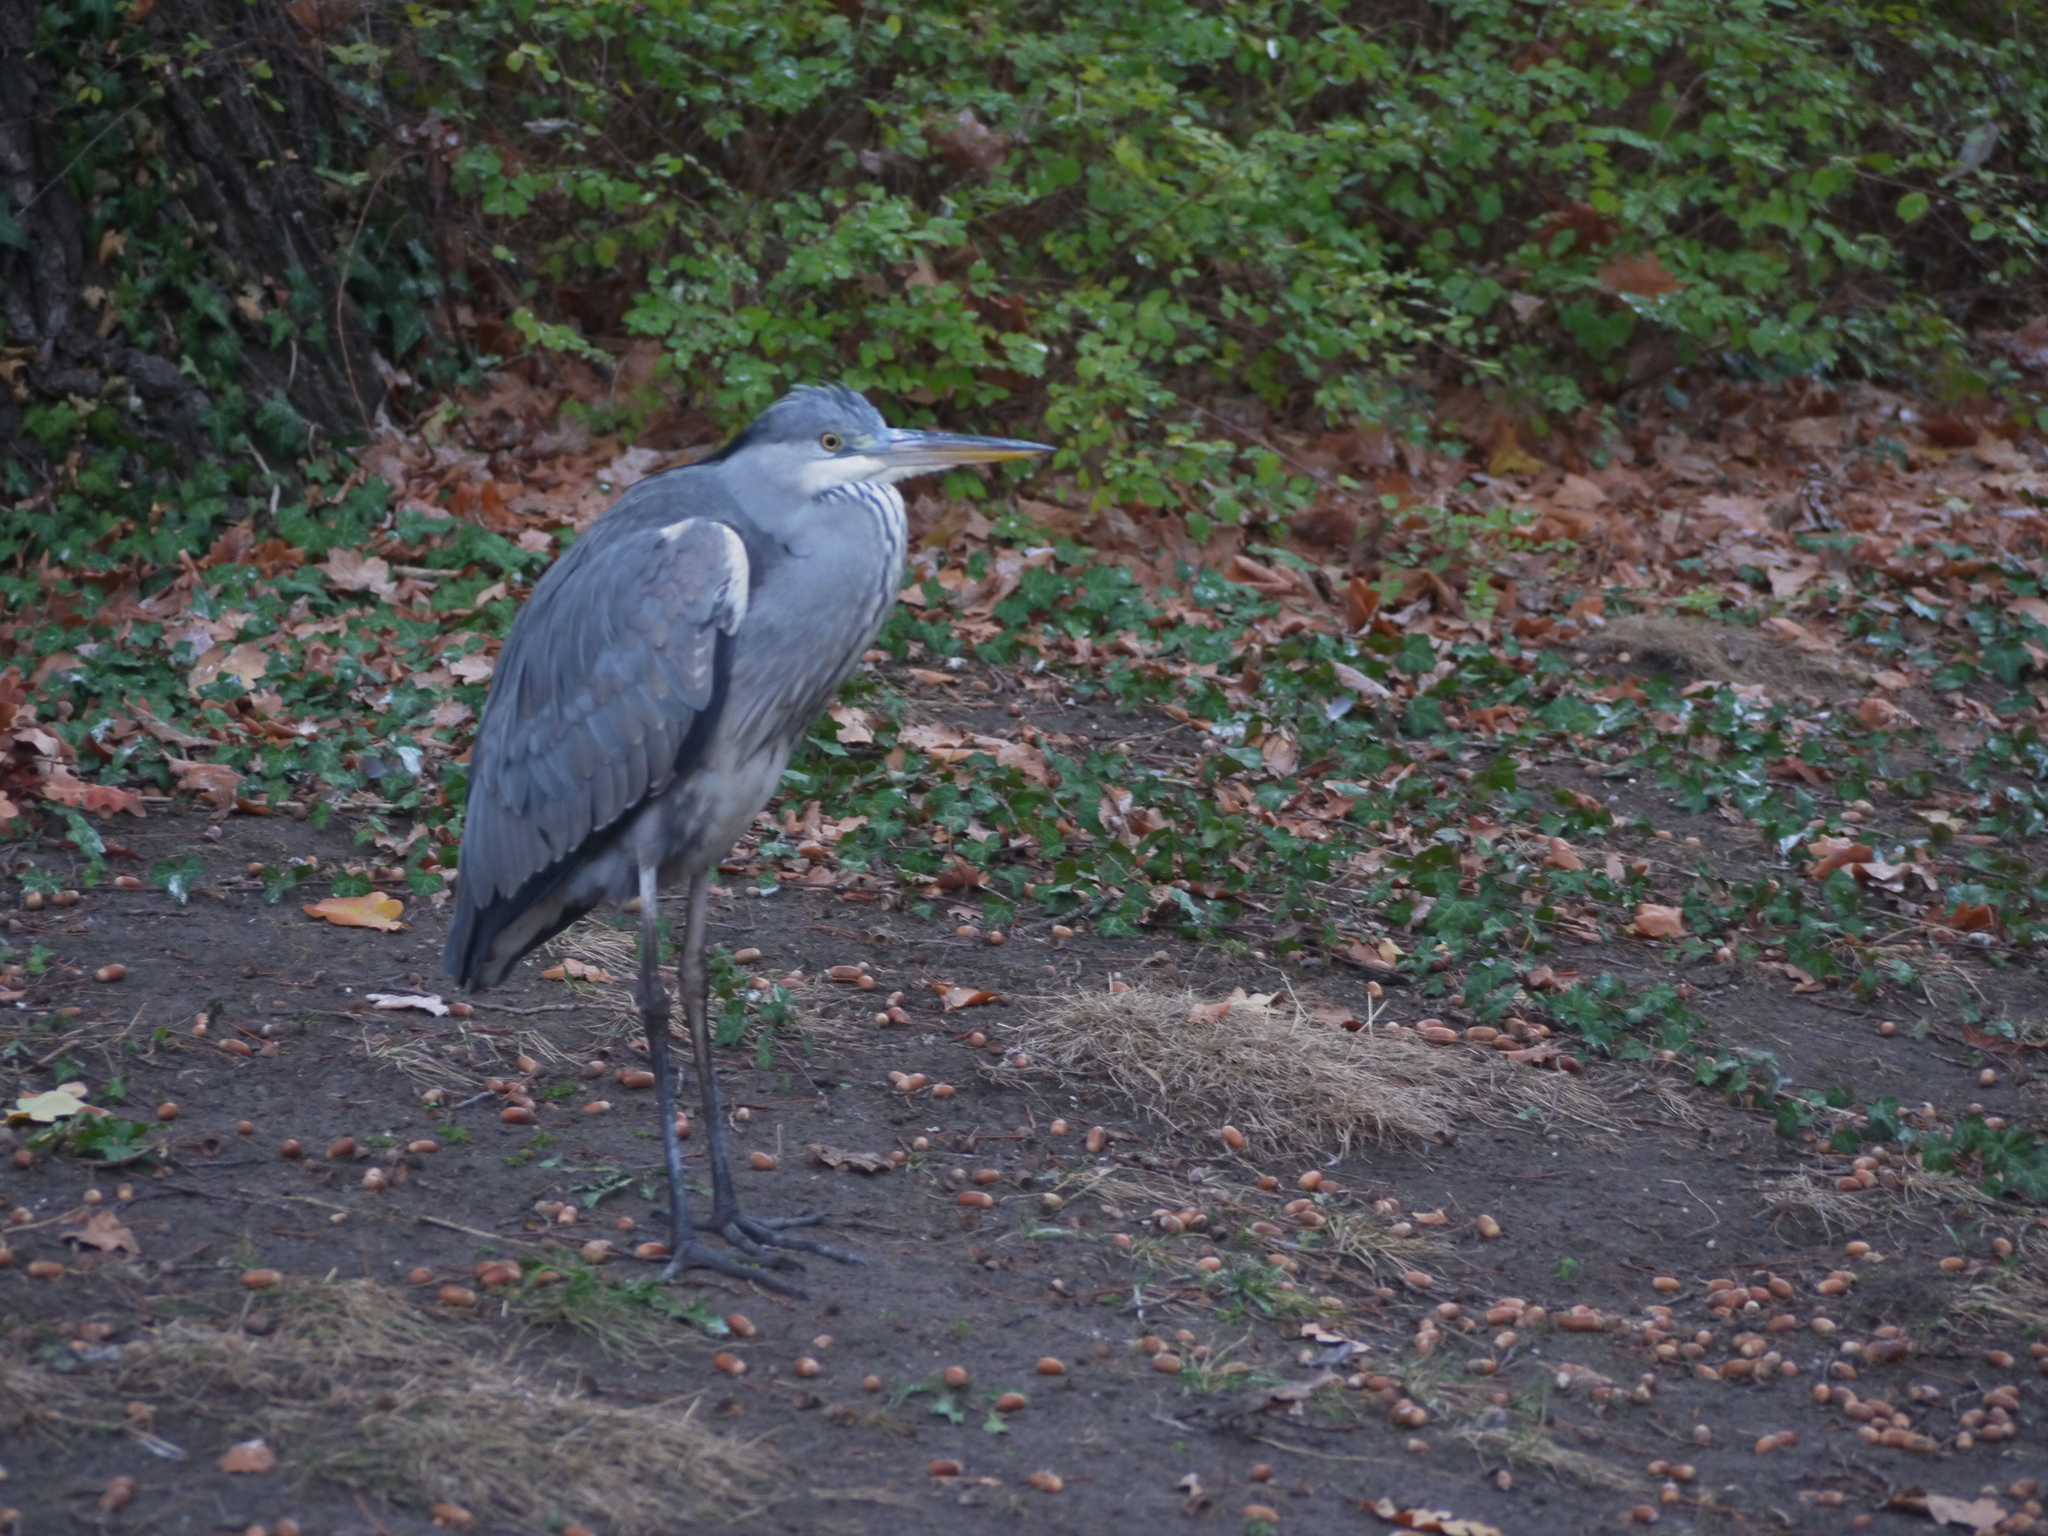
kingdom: Animalia
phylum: Chordata
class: Aves
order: Pelecaniformes
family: Ardeidae
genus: Ardea
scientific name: Ardea cinerea
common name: Grey heron
